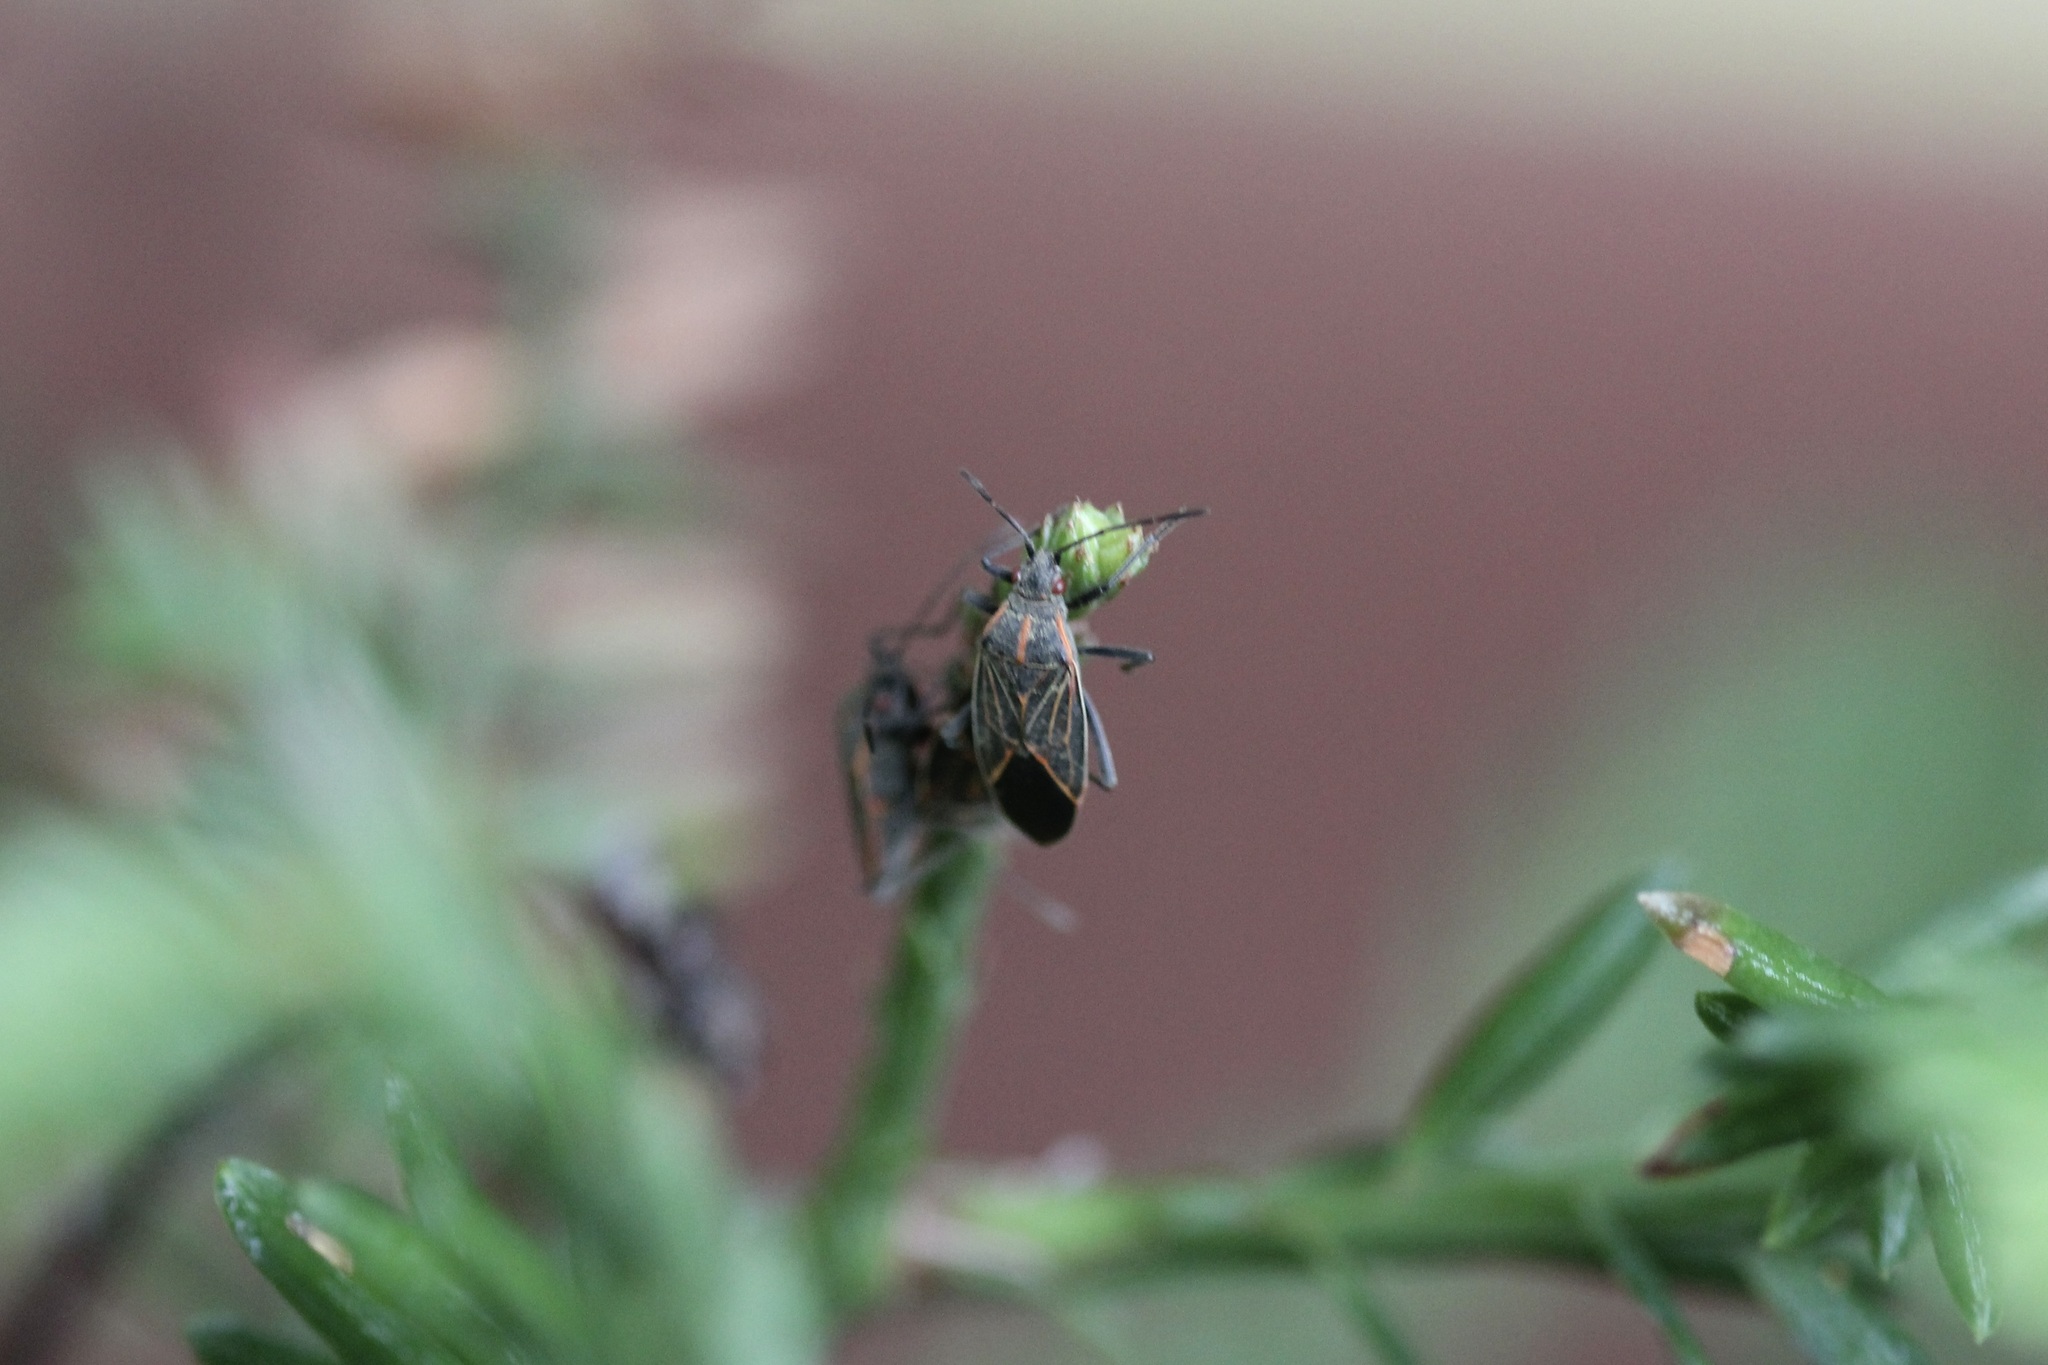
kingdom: Animalia
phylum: Arthropoda
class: Insecta
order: Hemiptera
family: Rhopalidae
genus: Boisea
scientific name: Boisea rubrolineata
